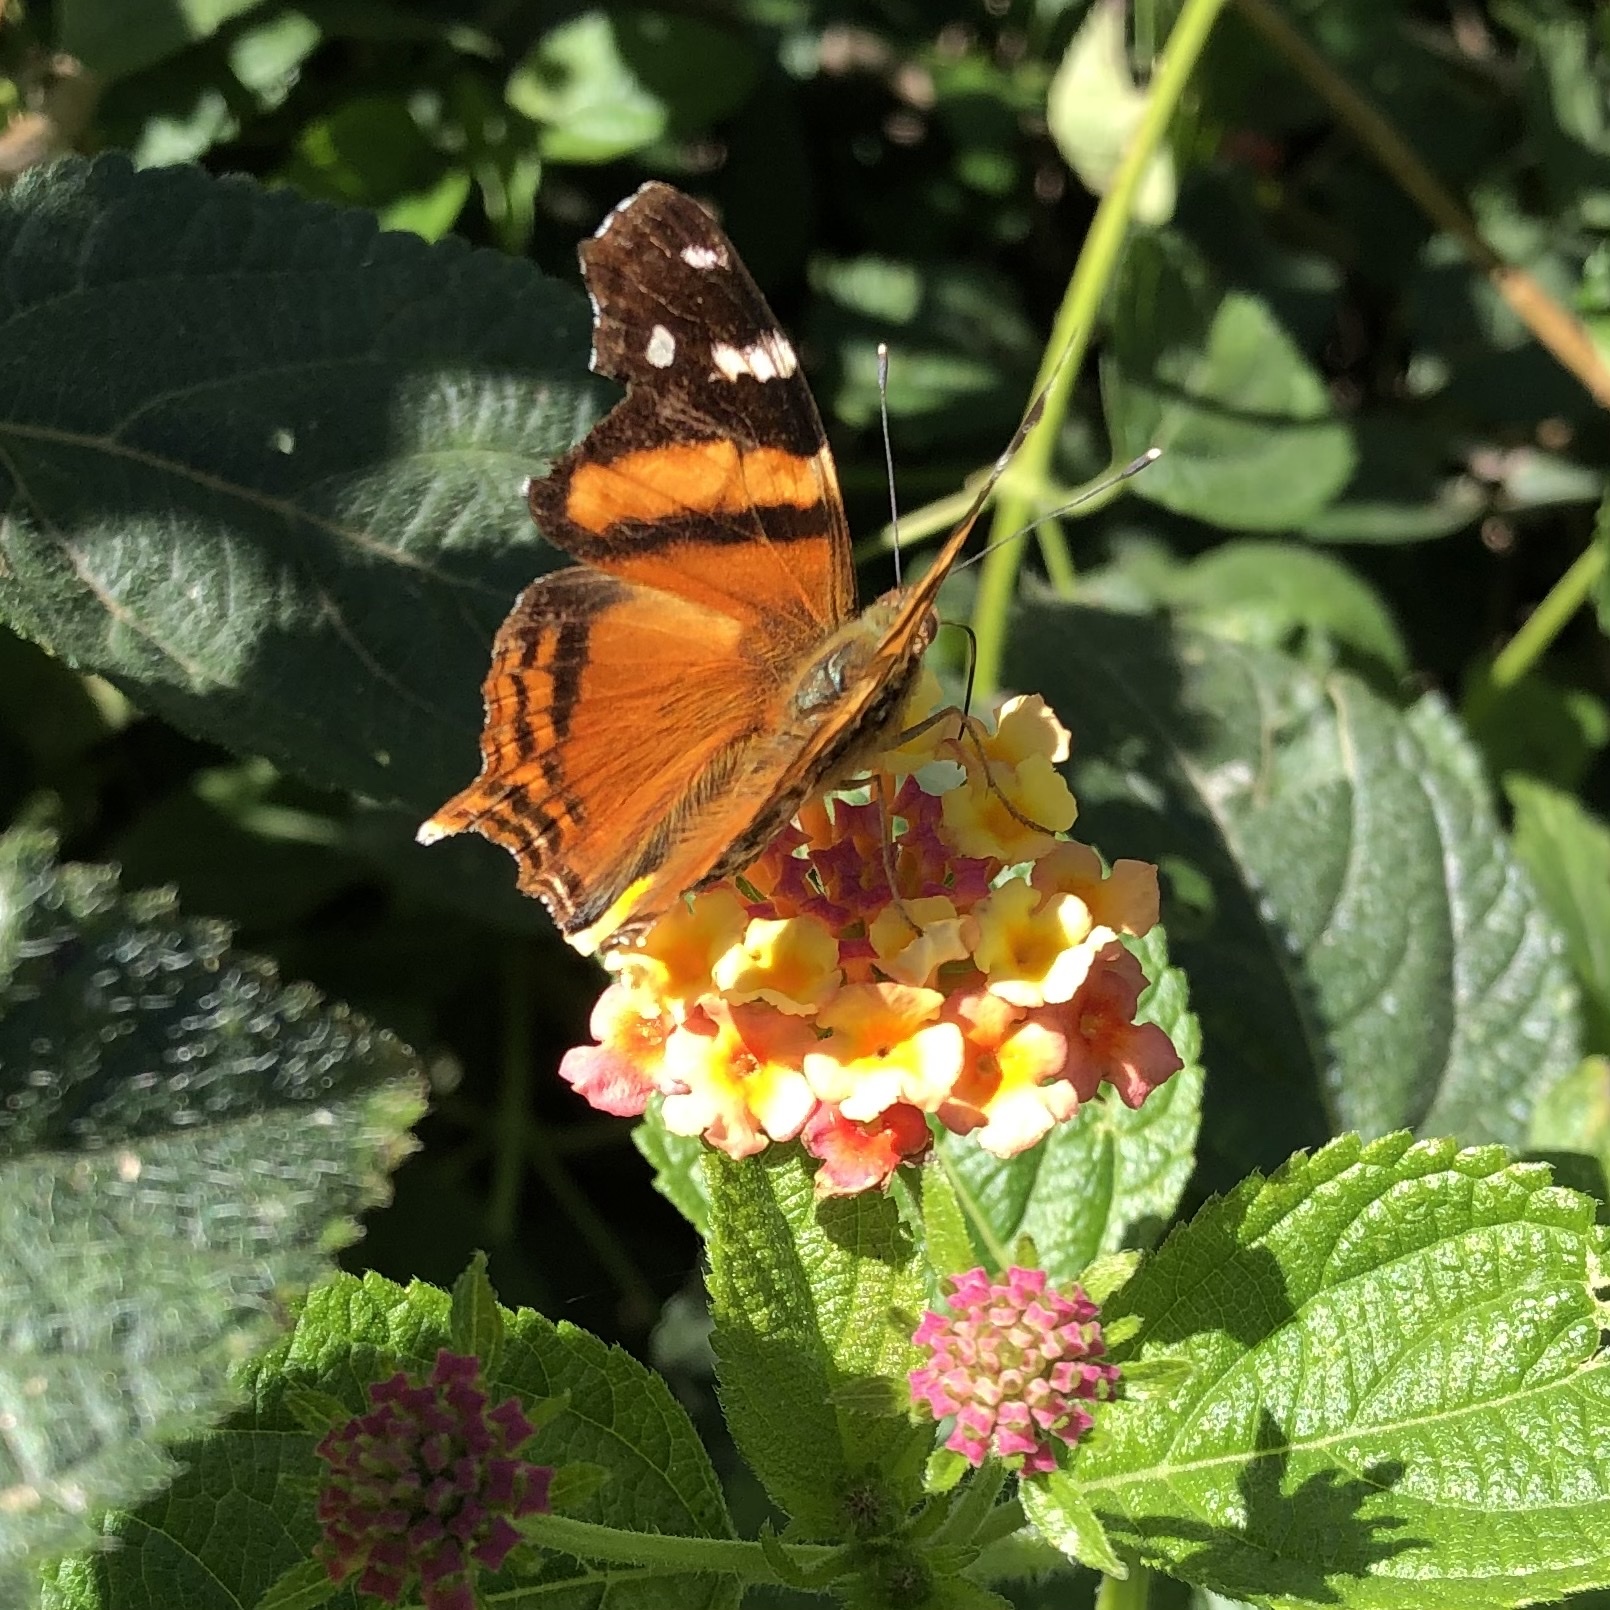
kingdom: Animalia
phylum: Arthropoda
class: Insecta
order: Lepidoptera
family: Nymphalidae
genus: Hypanartia
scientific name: Hypanartia bella
